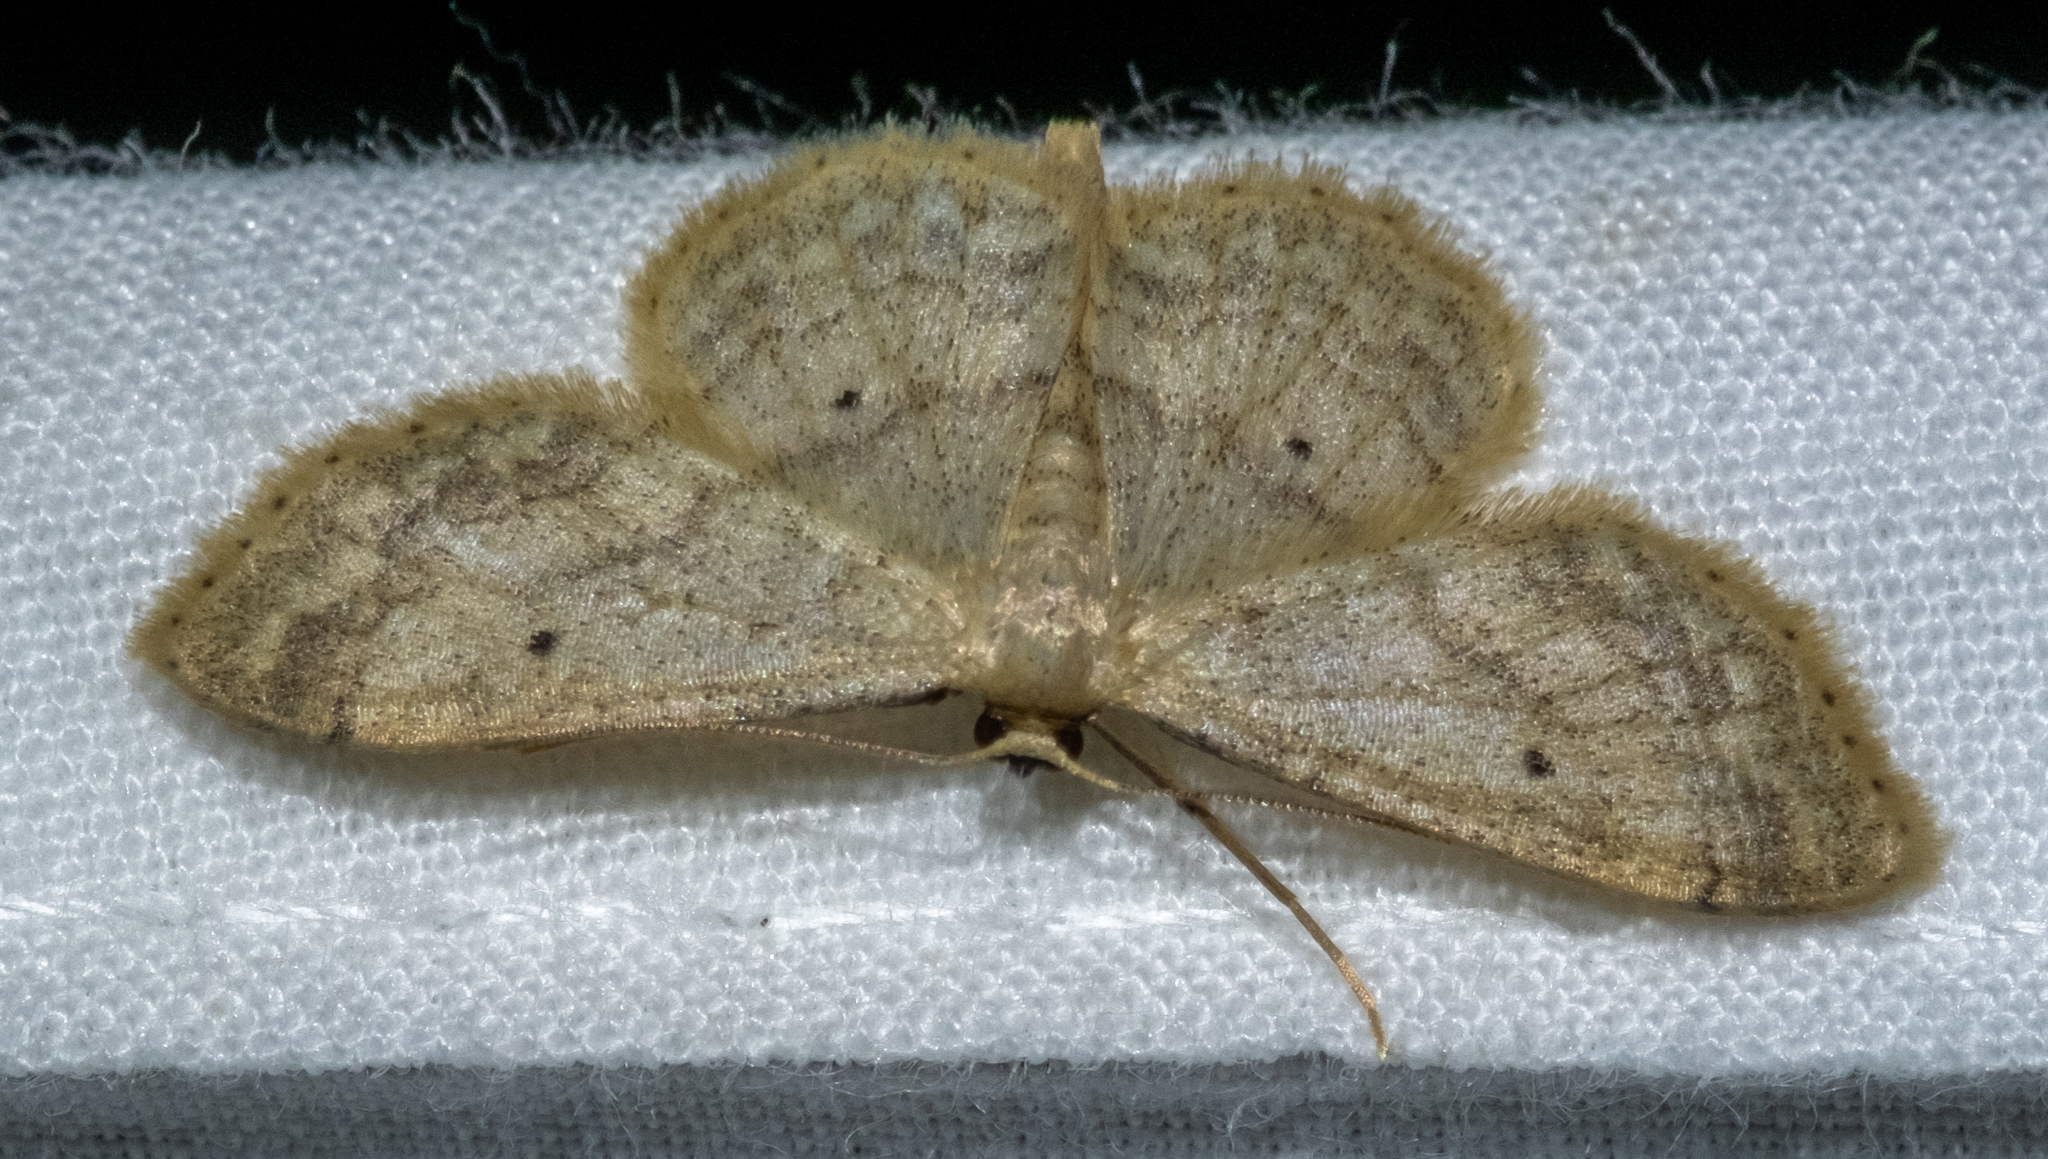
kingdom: Animalia
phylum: Arthropoda
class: Insecta
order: Lepidoptera
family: Geometridae
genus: Idaea
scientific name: Idaea biselata
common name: Small fan-footed wave
